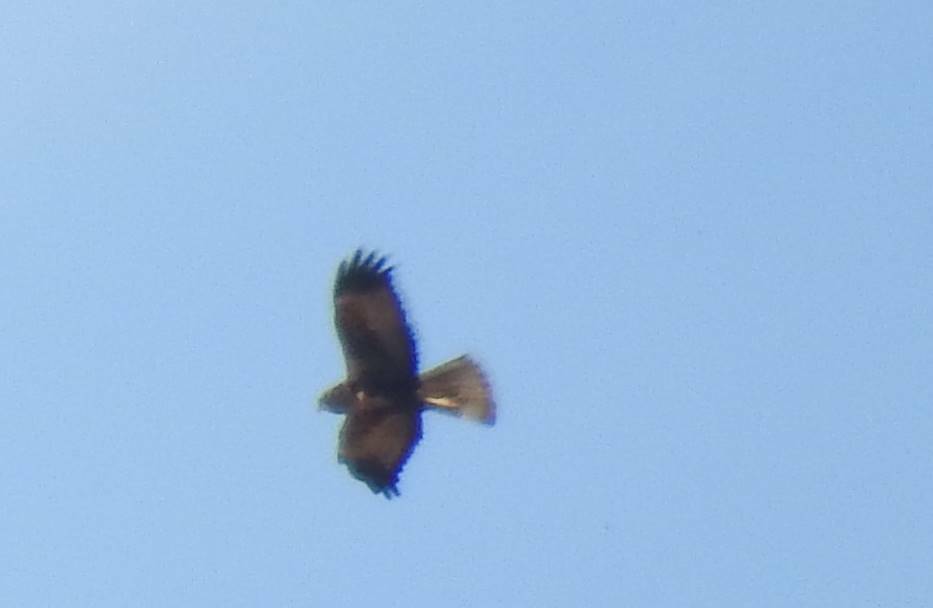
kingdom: Animalia
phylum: Chordata
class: Aves
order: Accipitriformes
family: Accipitridae
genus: Circus
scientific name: Circus aeruginosus
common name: Western marsh harrier
